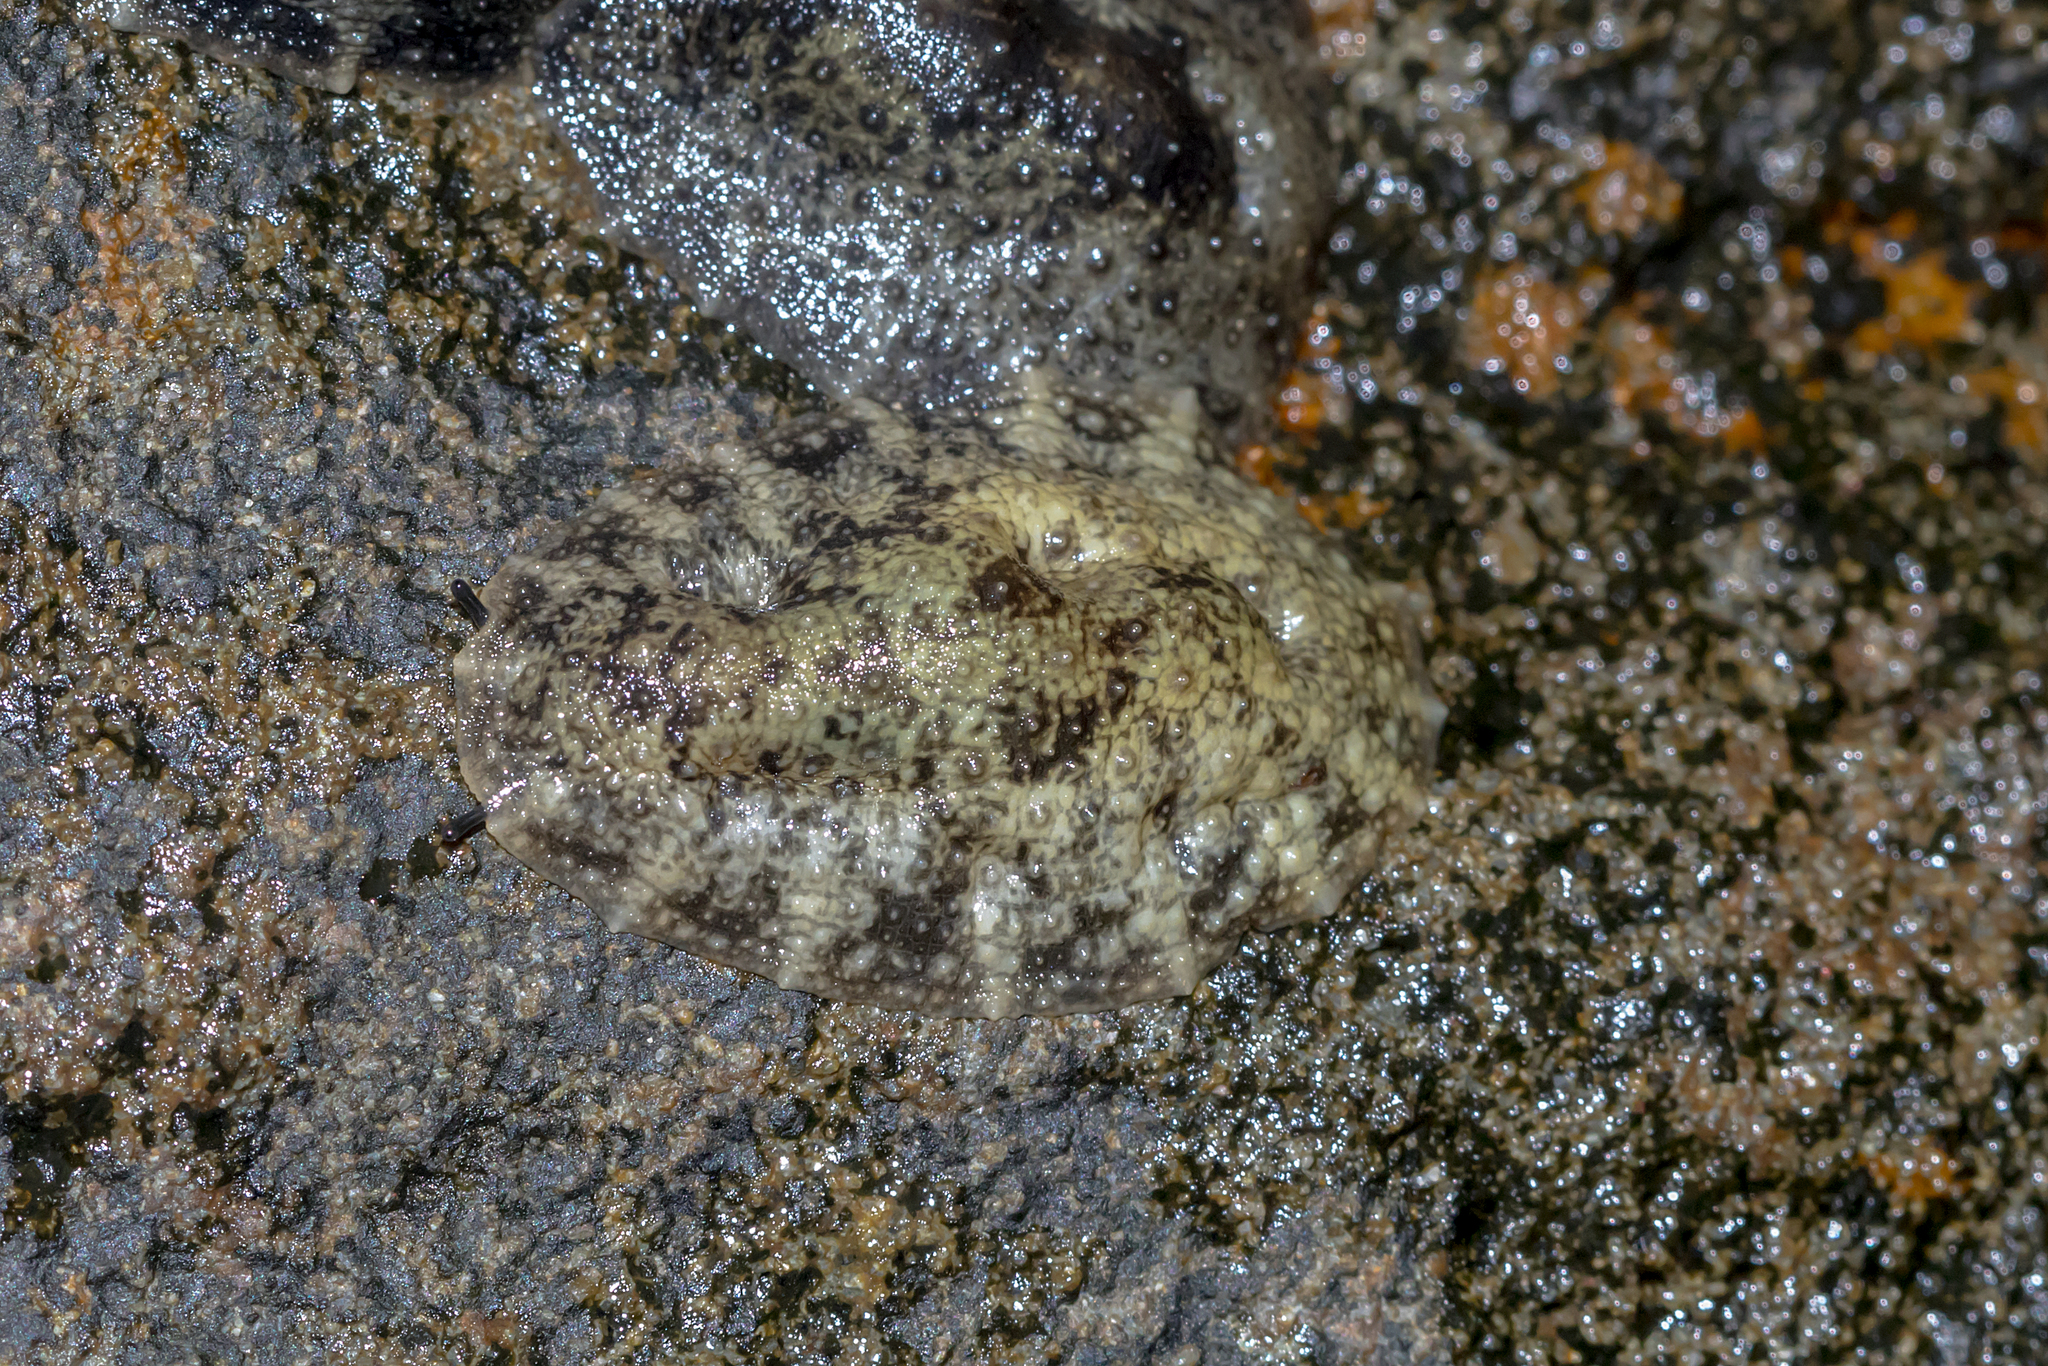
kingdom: Animalia
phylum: Mollusca
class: Gastropoda
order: Systellommatophora
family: Onchidiidae
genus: Onchidella
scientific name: Onchidella nigricans
